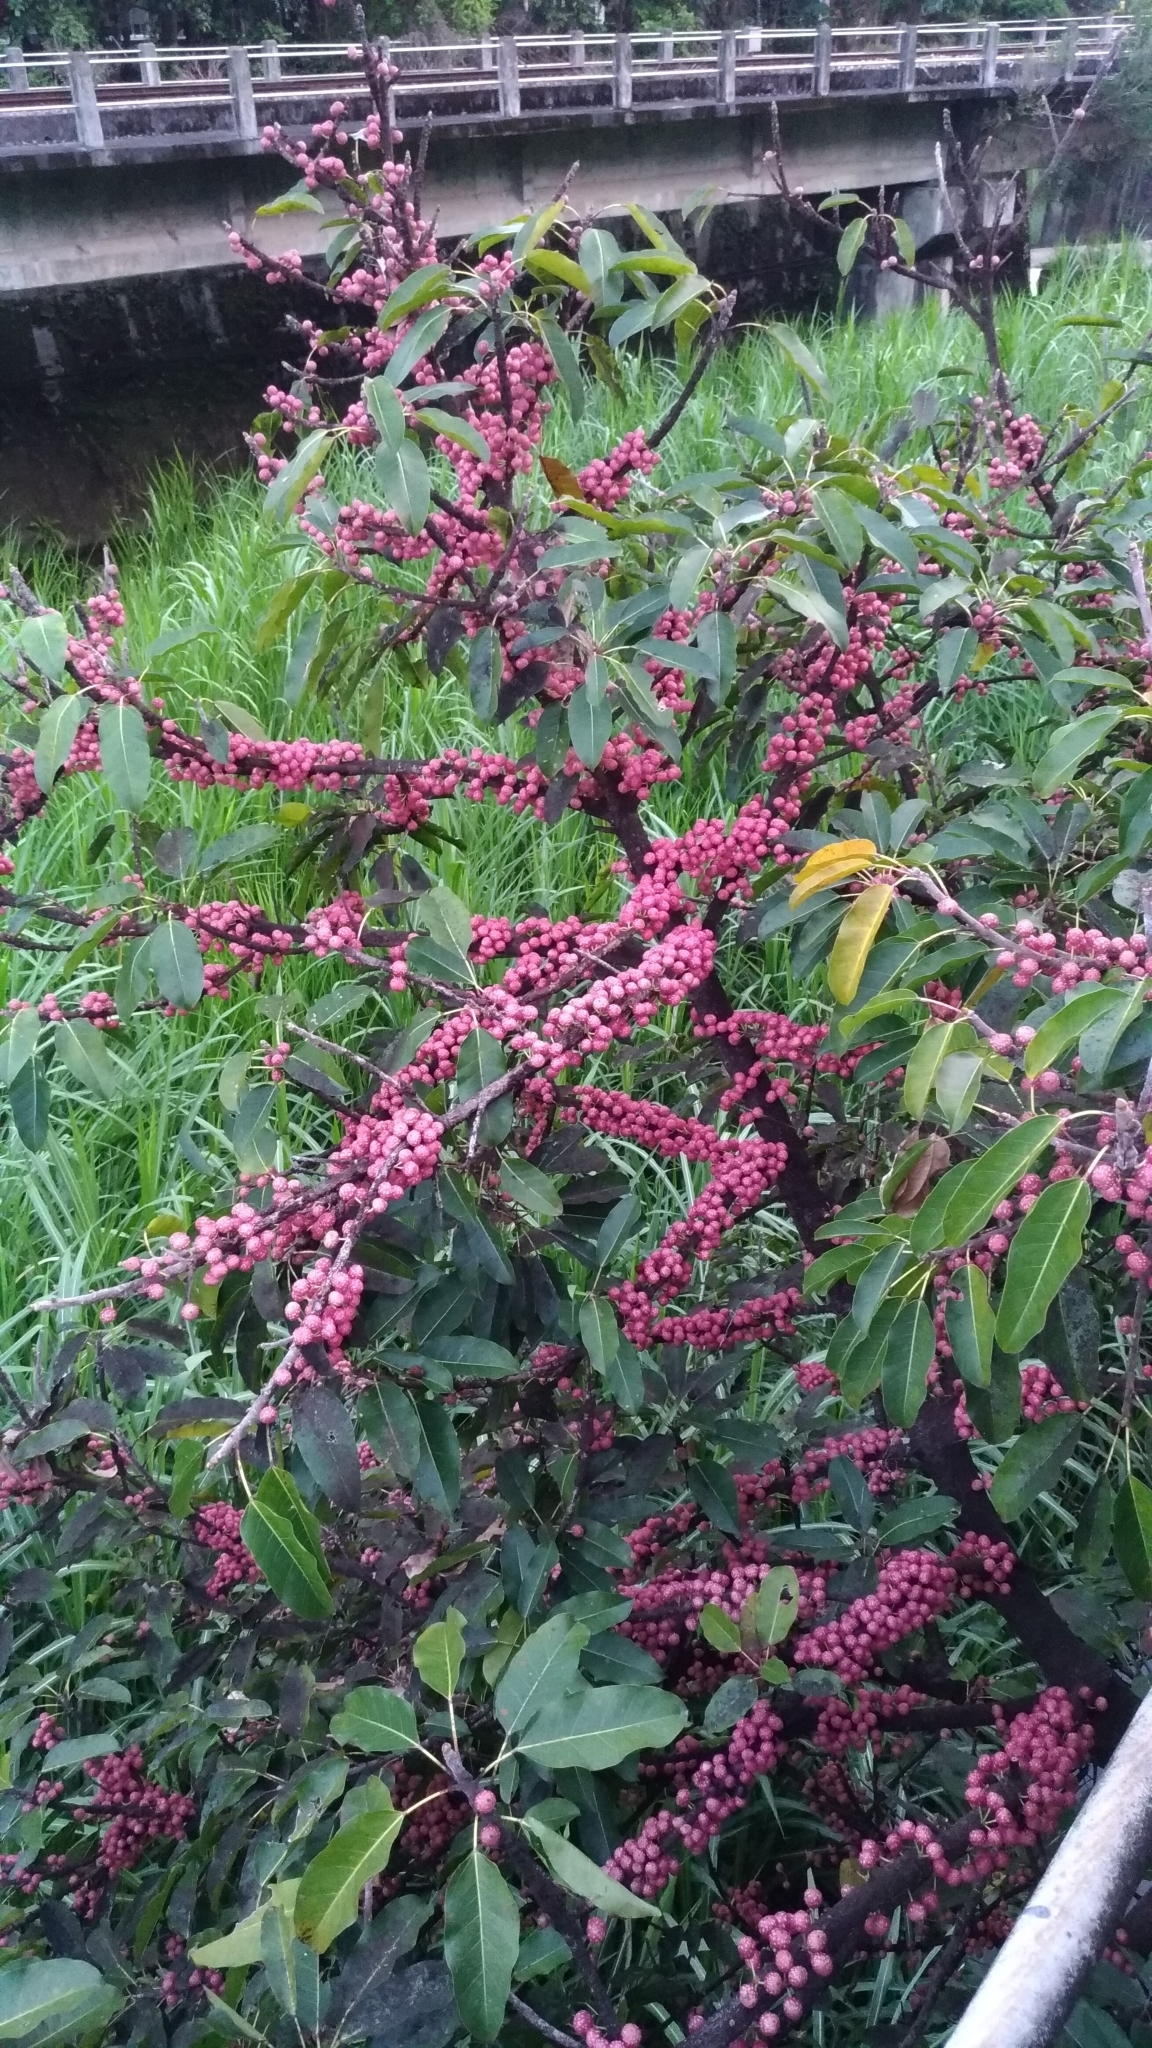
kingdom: Plantae
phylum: Tracheophyta
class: Magnoliopsida
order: Rosales
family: Moraceae
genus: Ficus
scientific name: Ficus subpisocarpa
